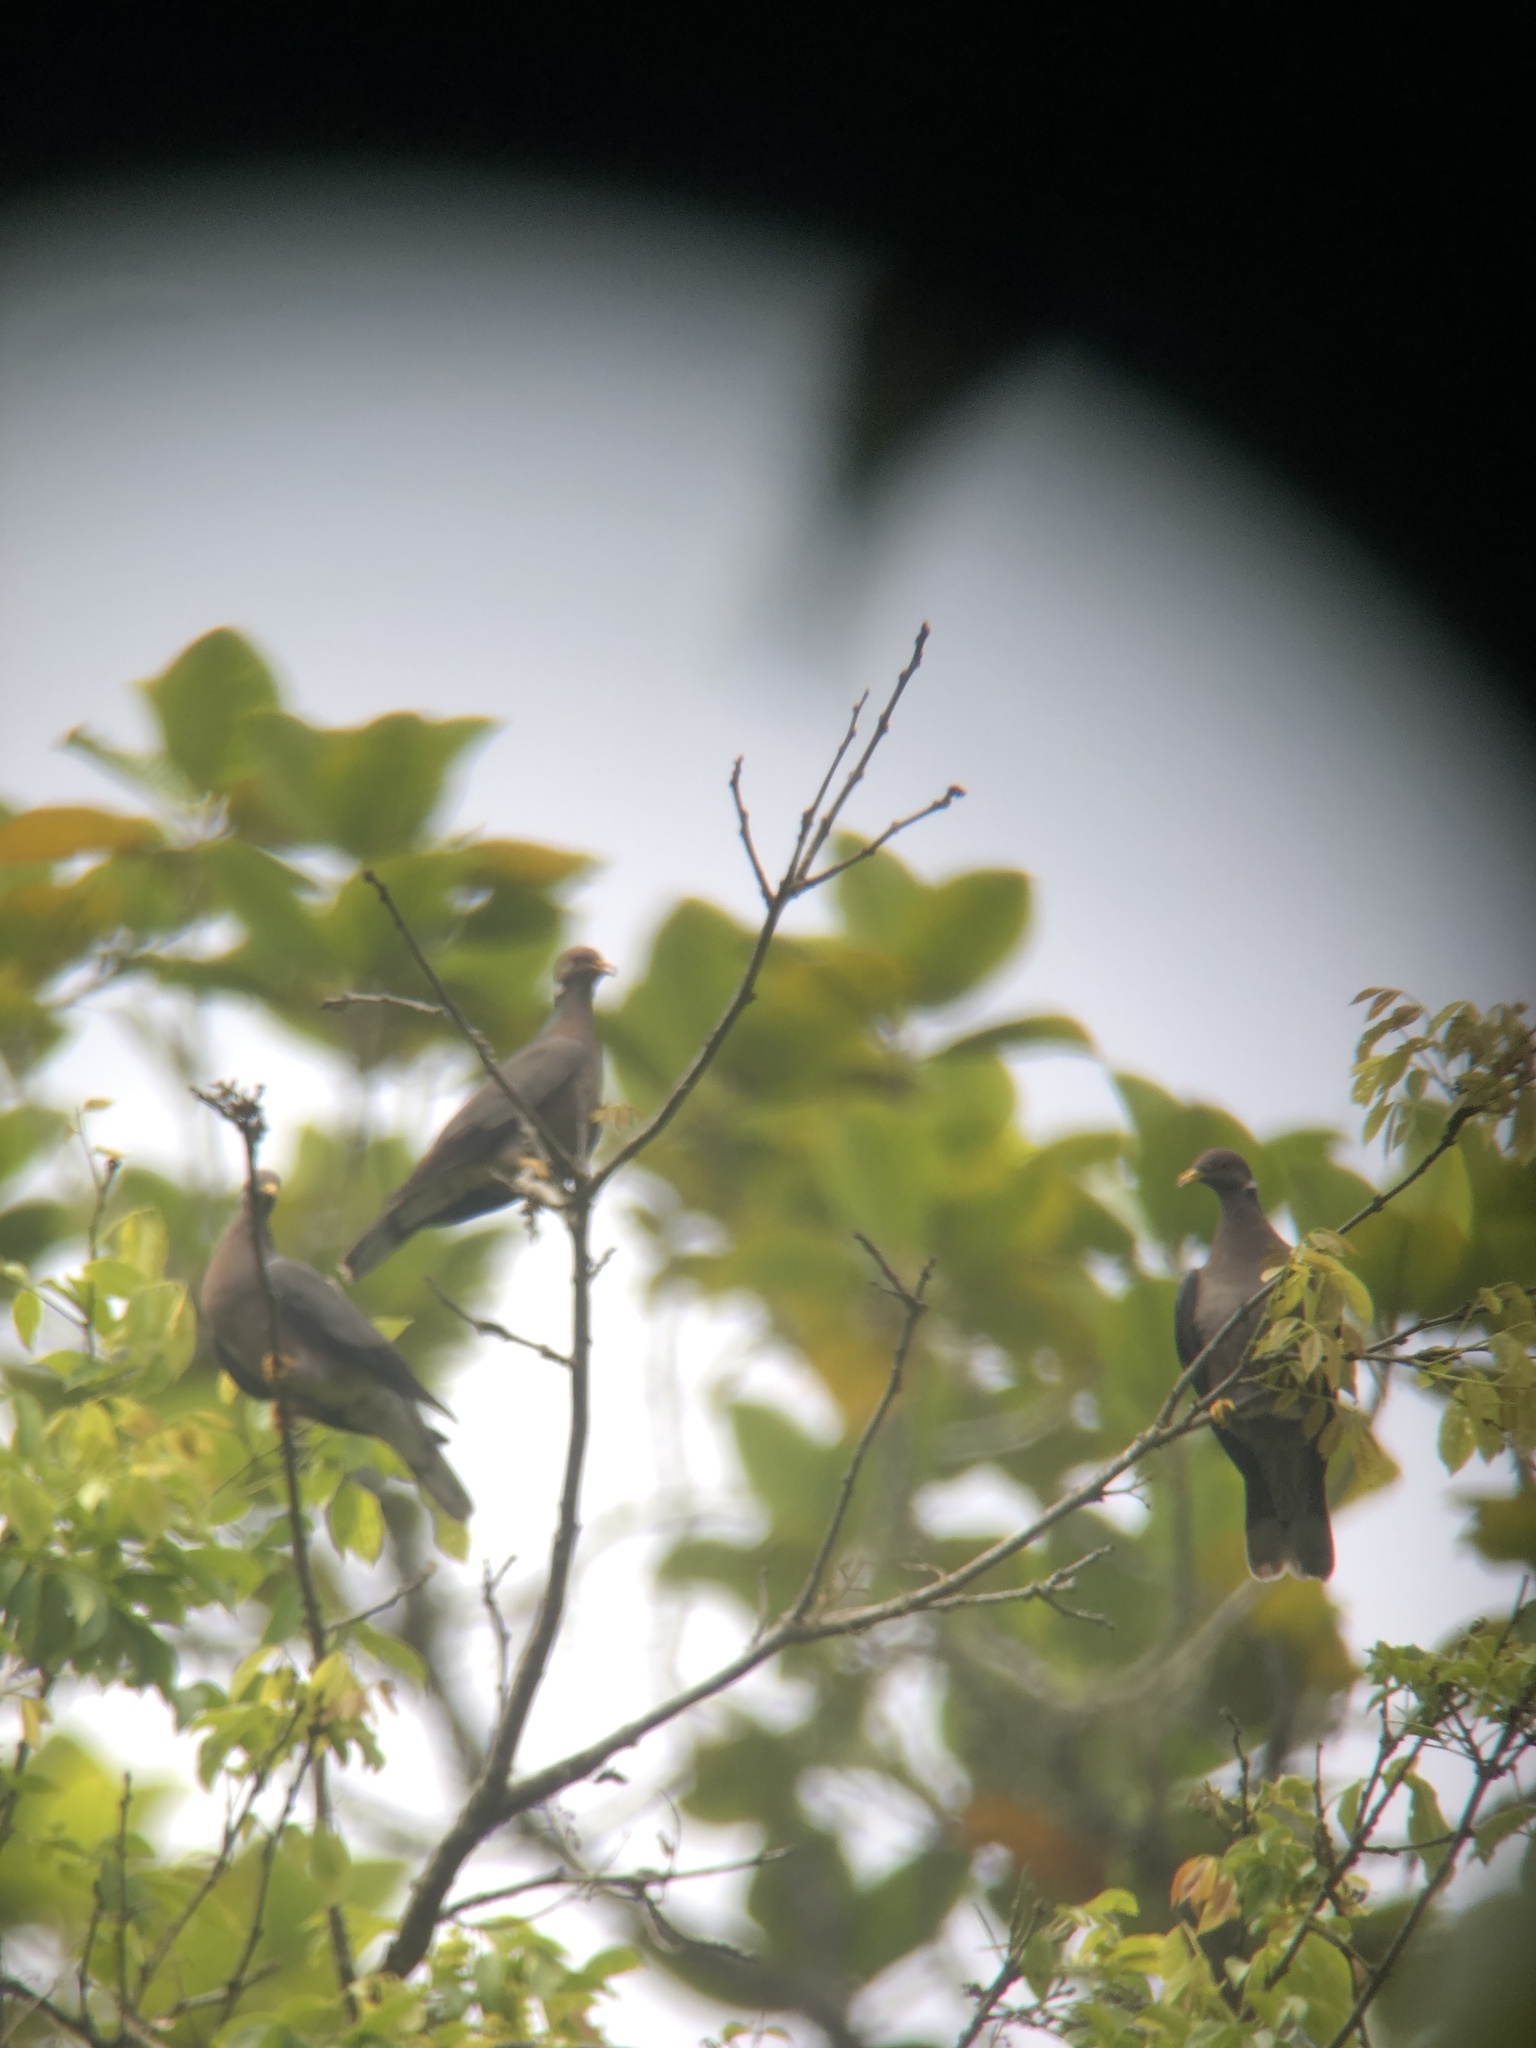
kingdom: Animalia
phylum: Chordata
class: Aves
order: Columbiformes
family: Columbidae
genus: Patagioenas
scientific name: Patagioenas fasciata
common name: Band-tailed pigeon
